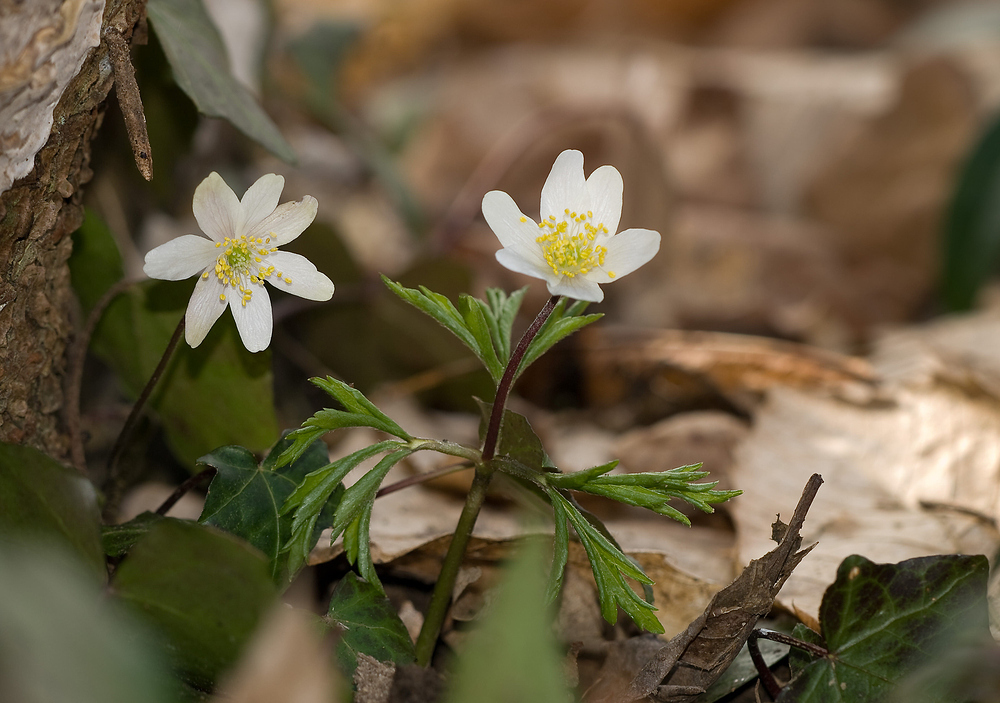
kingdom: Plantae
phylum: Tracheophyta
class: Magnoliopsida
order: Ranunculales
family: Ranunculaceae
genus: Anemone
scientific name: Anemone nemorosa
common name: Wood anemone
